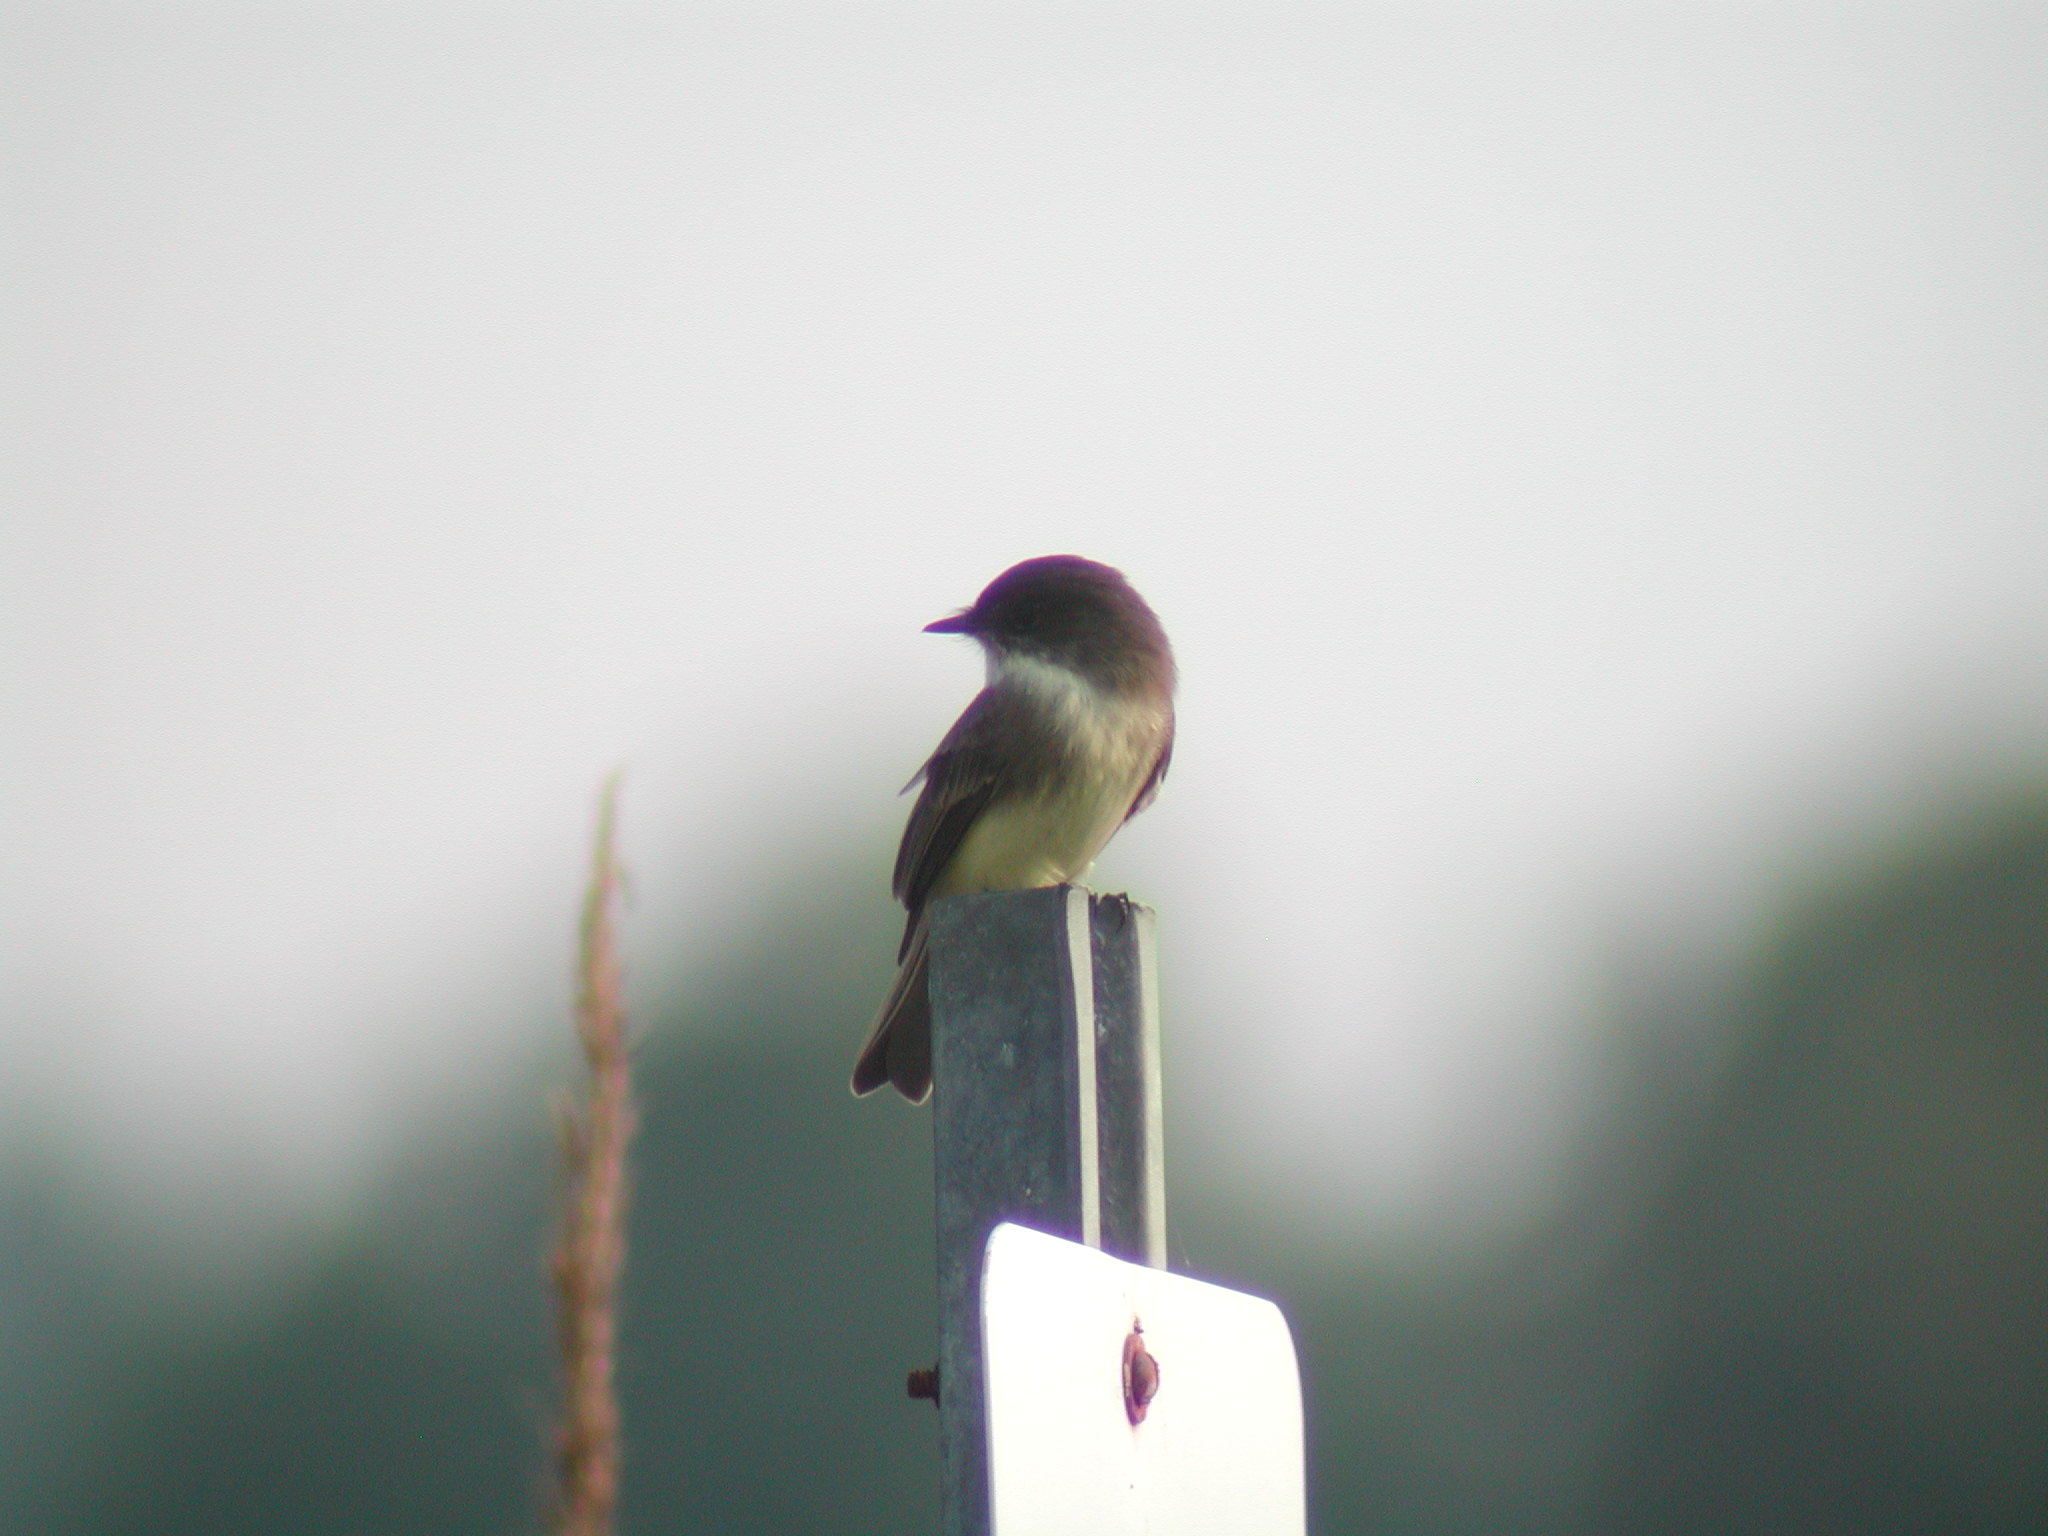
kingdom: Animalia
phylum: Chordata
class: Aves
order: Passeriformes
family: Tyrannidae
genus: Sayornis
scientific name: Sayornis phoebe
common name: Eastern phoebe
